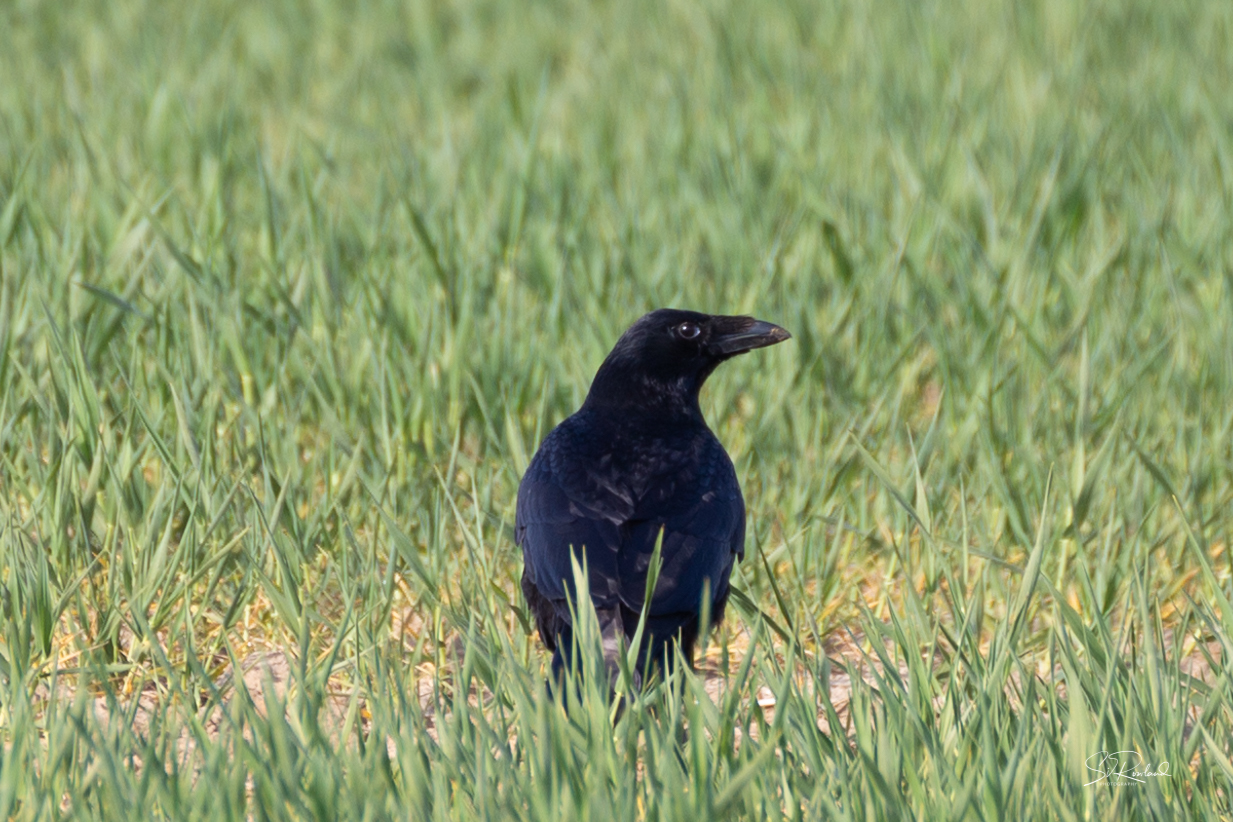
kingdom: Animalia
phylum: Chordata
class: Aves
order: Passeriformes
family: Corvidae
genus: Corvus
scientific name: Corvus corone
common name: Carrion crow
